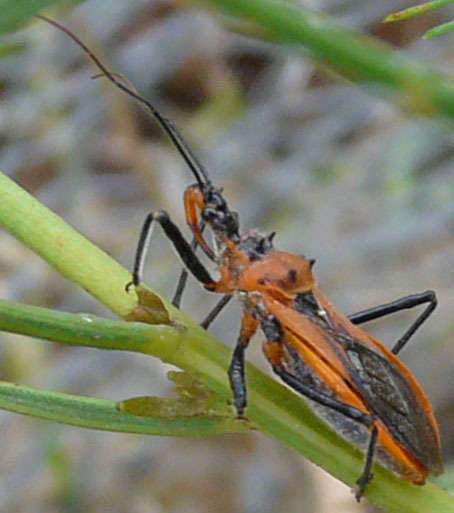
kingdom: Animalia
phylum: Arthropoda
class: Insecta
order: Hemiptera
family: Reduviidae
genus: Gminatus
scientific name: Gminatus australis
